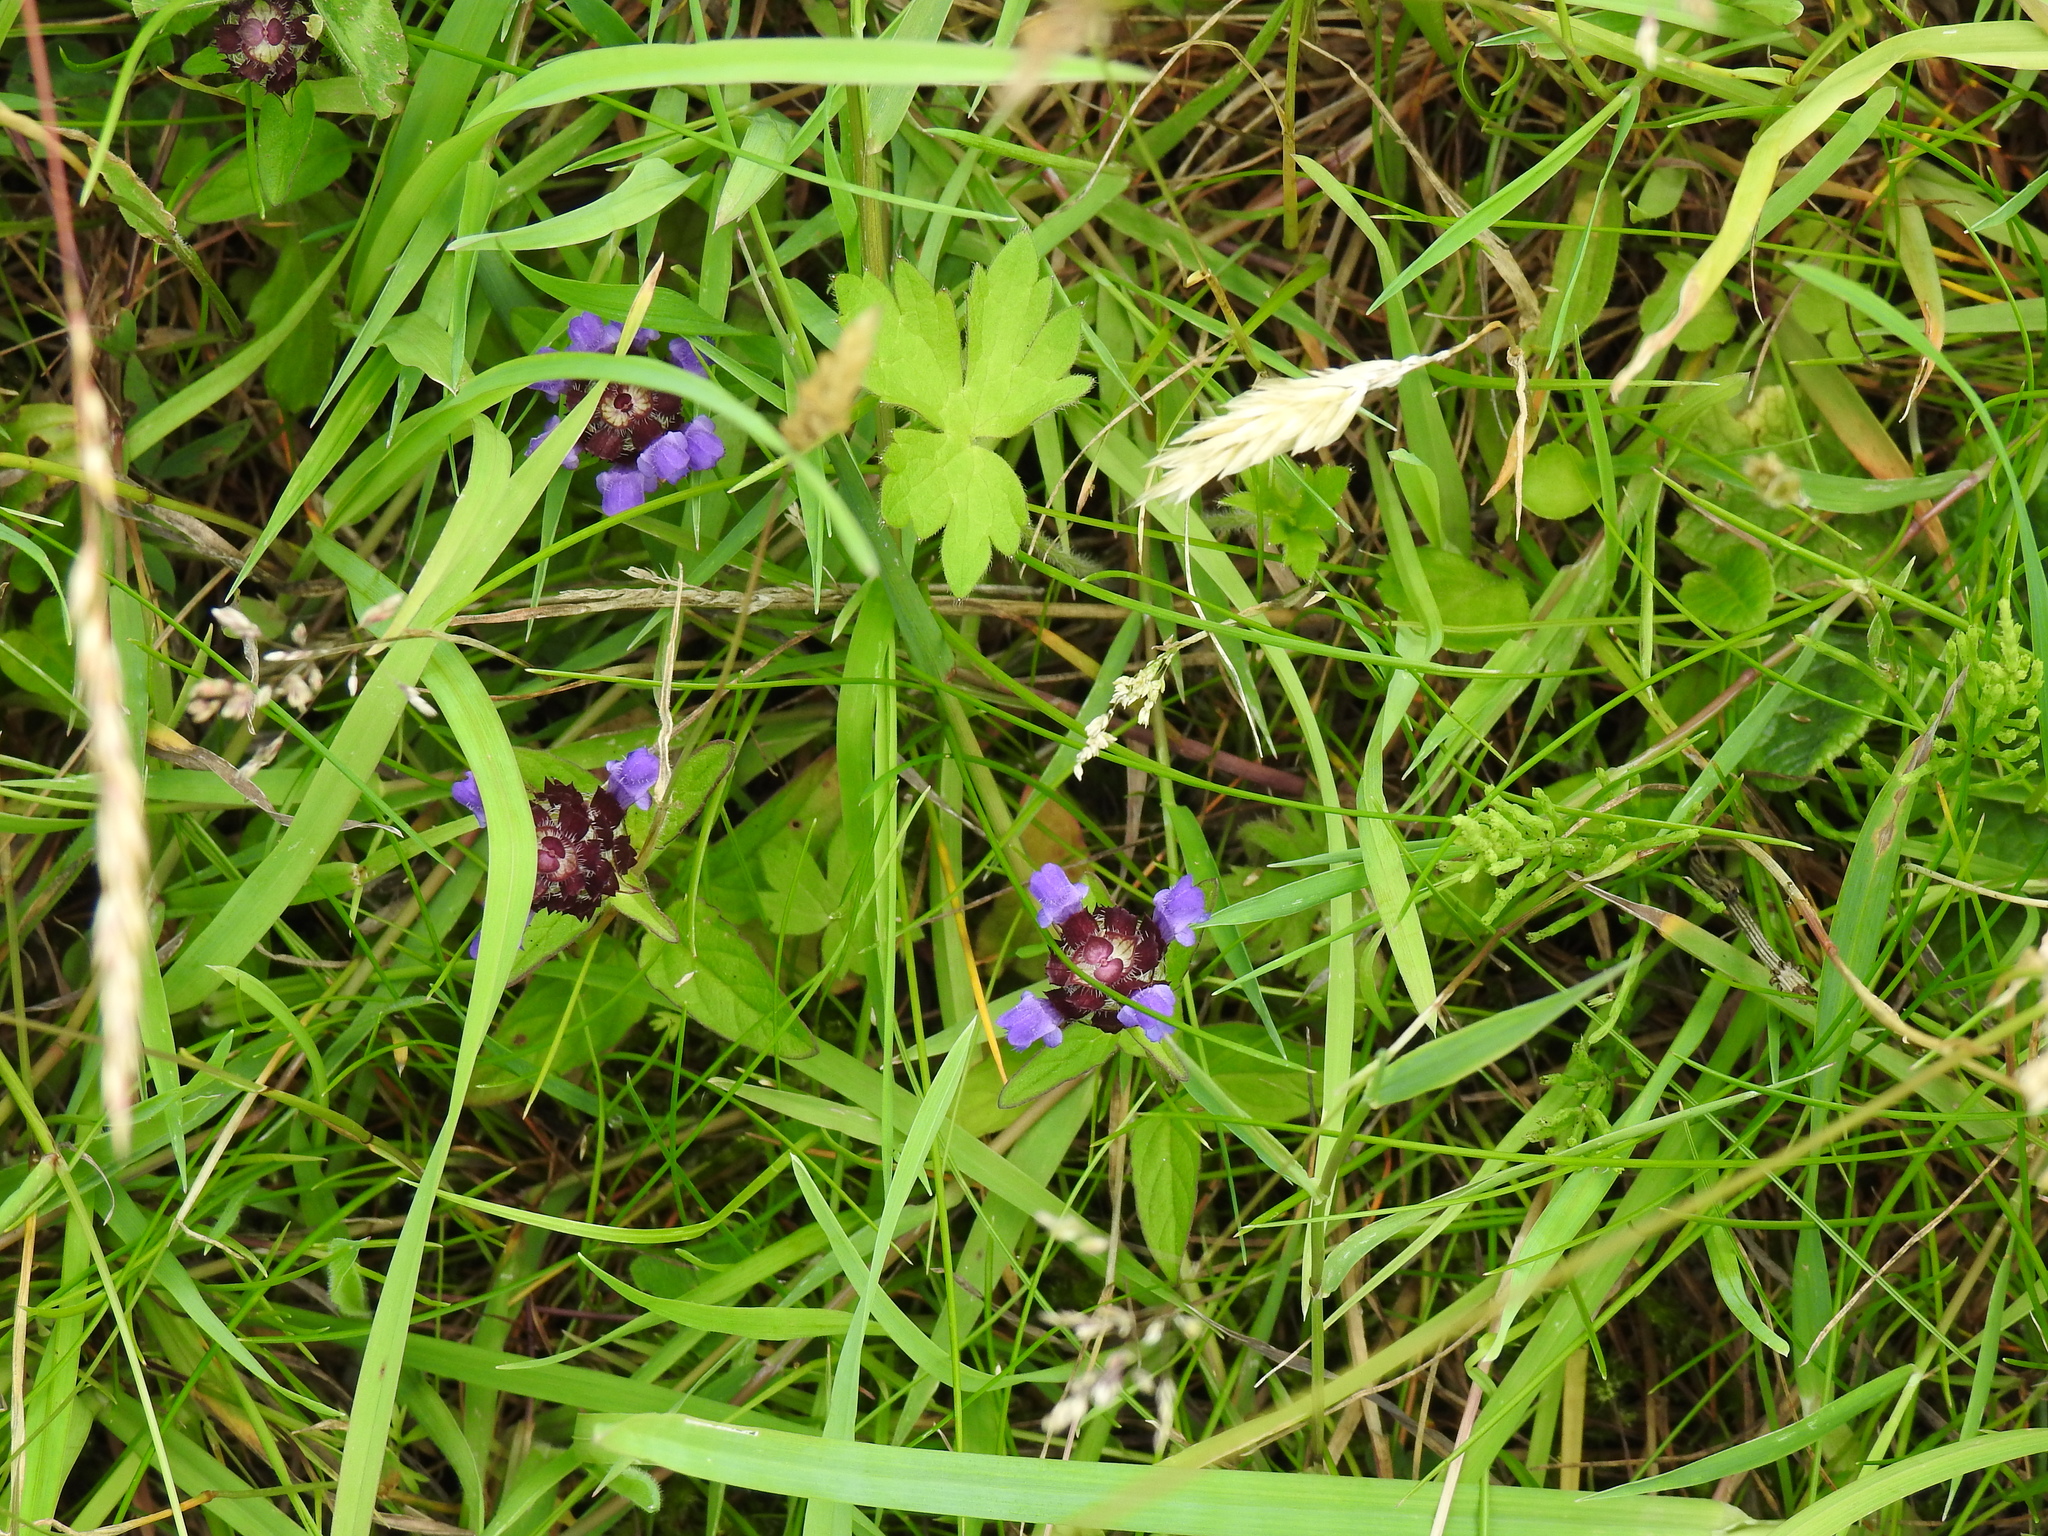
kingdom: Plantae
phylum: Tracheophyta
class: Magnoliopsida
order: Lamiales
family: Lamiaceae
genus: Prunella
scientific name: Prunella vulgaris
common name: Heal-all
